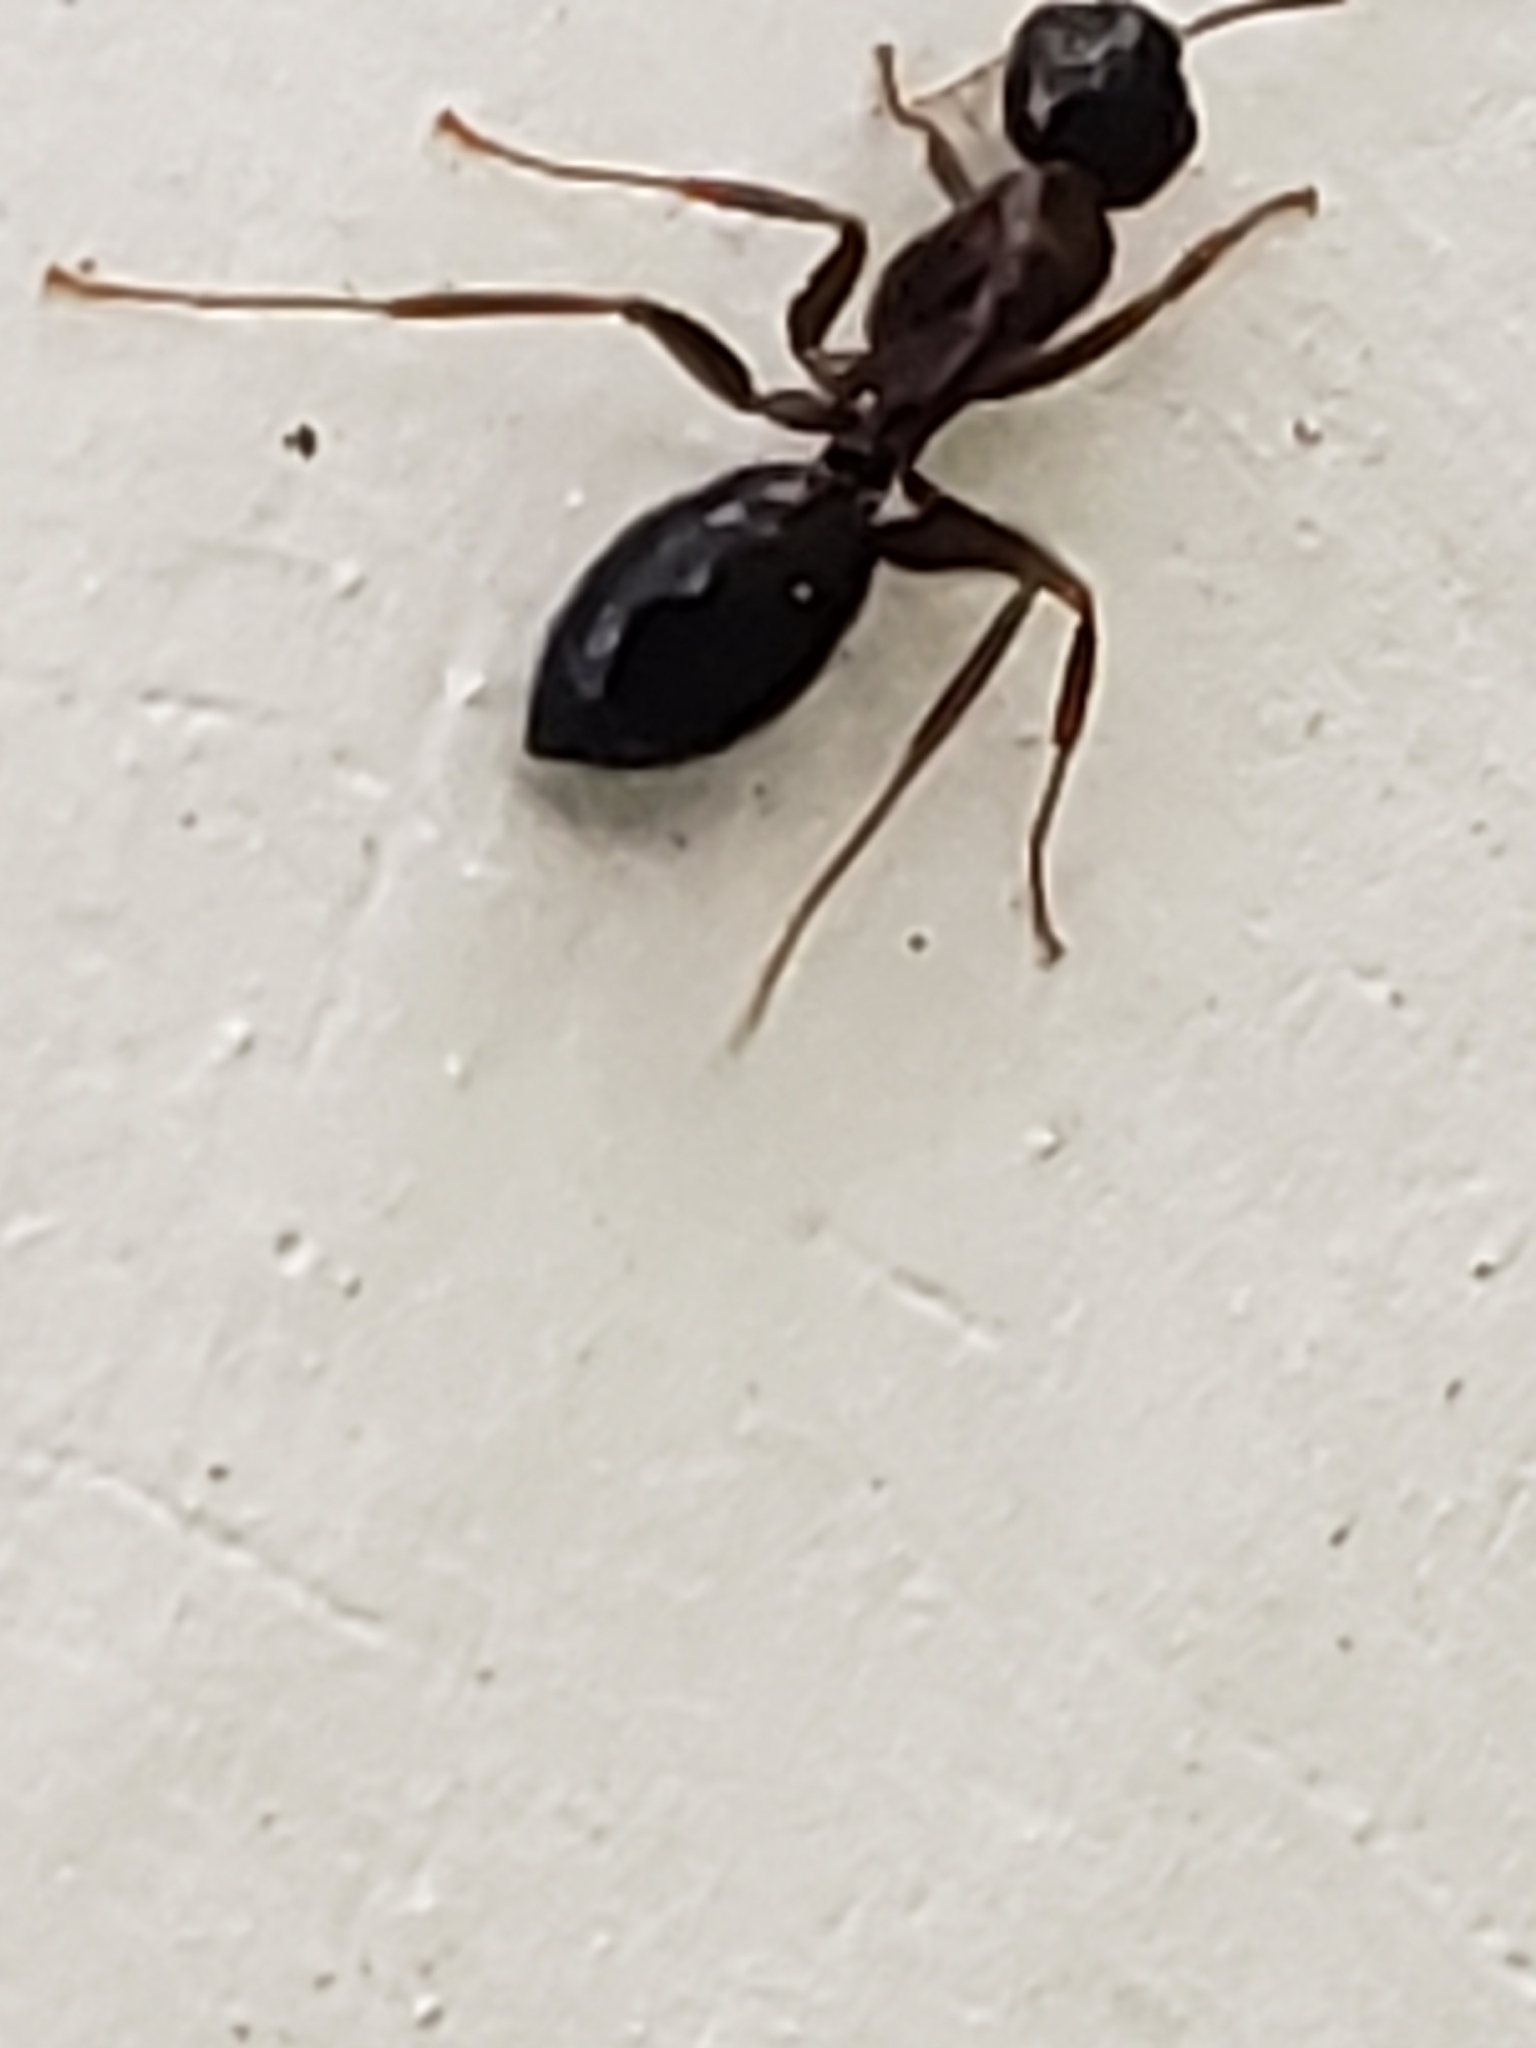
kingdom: Animalia
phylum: Arthropoda
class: Insecta
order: Hymenoptera
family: Formicidae
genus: Camponotus
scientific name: Camponotus nearcticus
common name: Smaller carpenter ant
